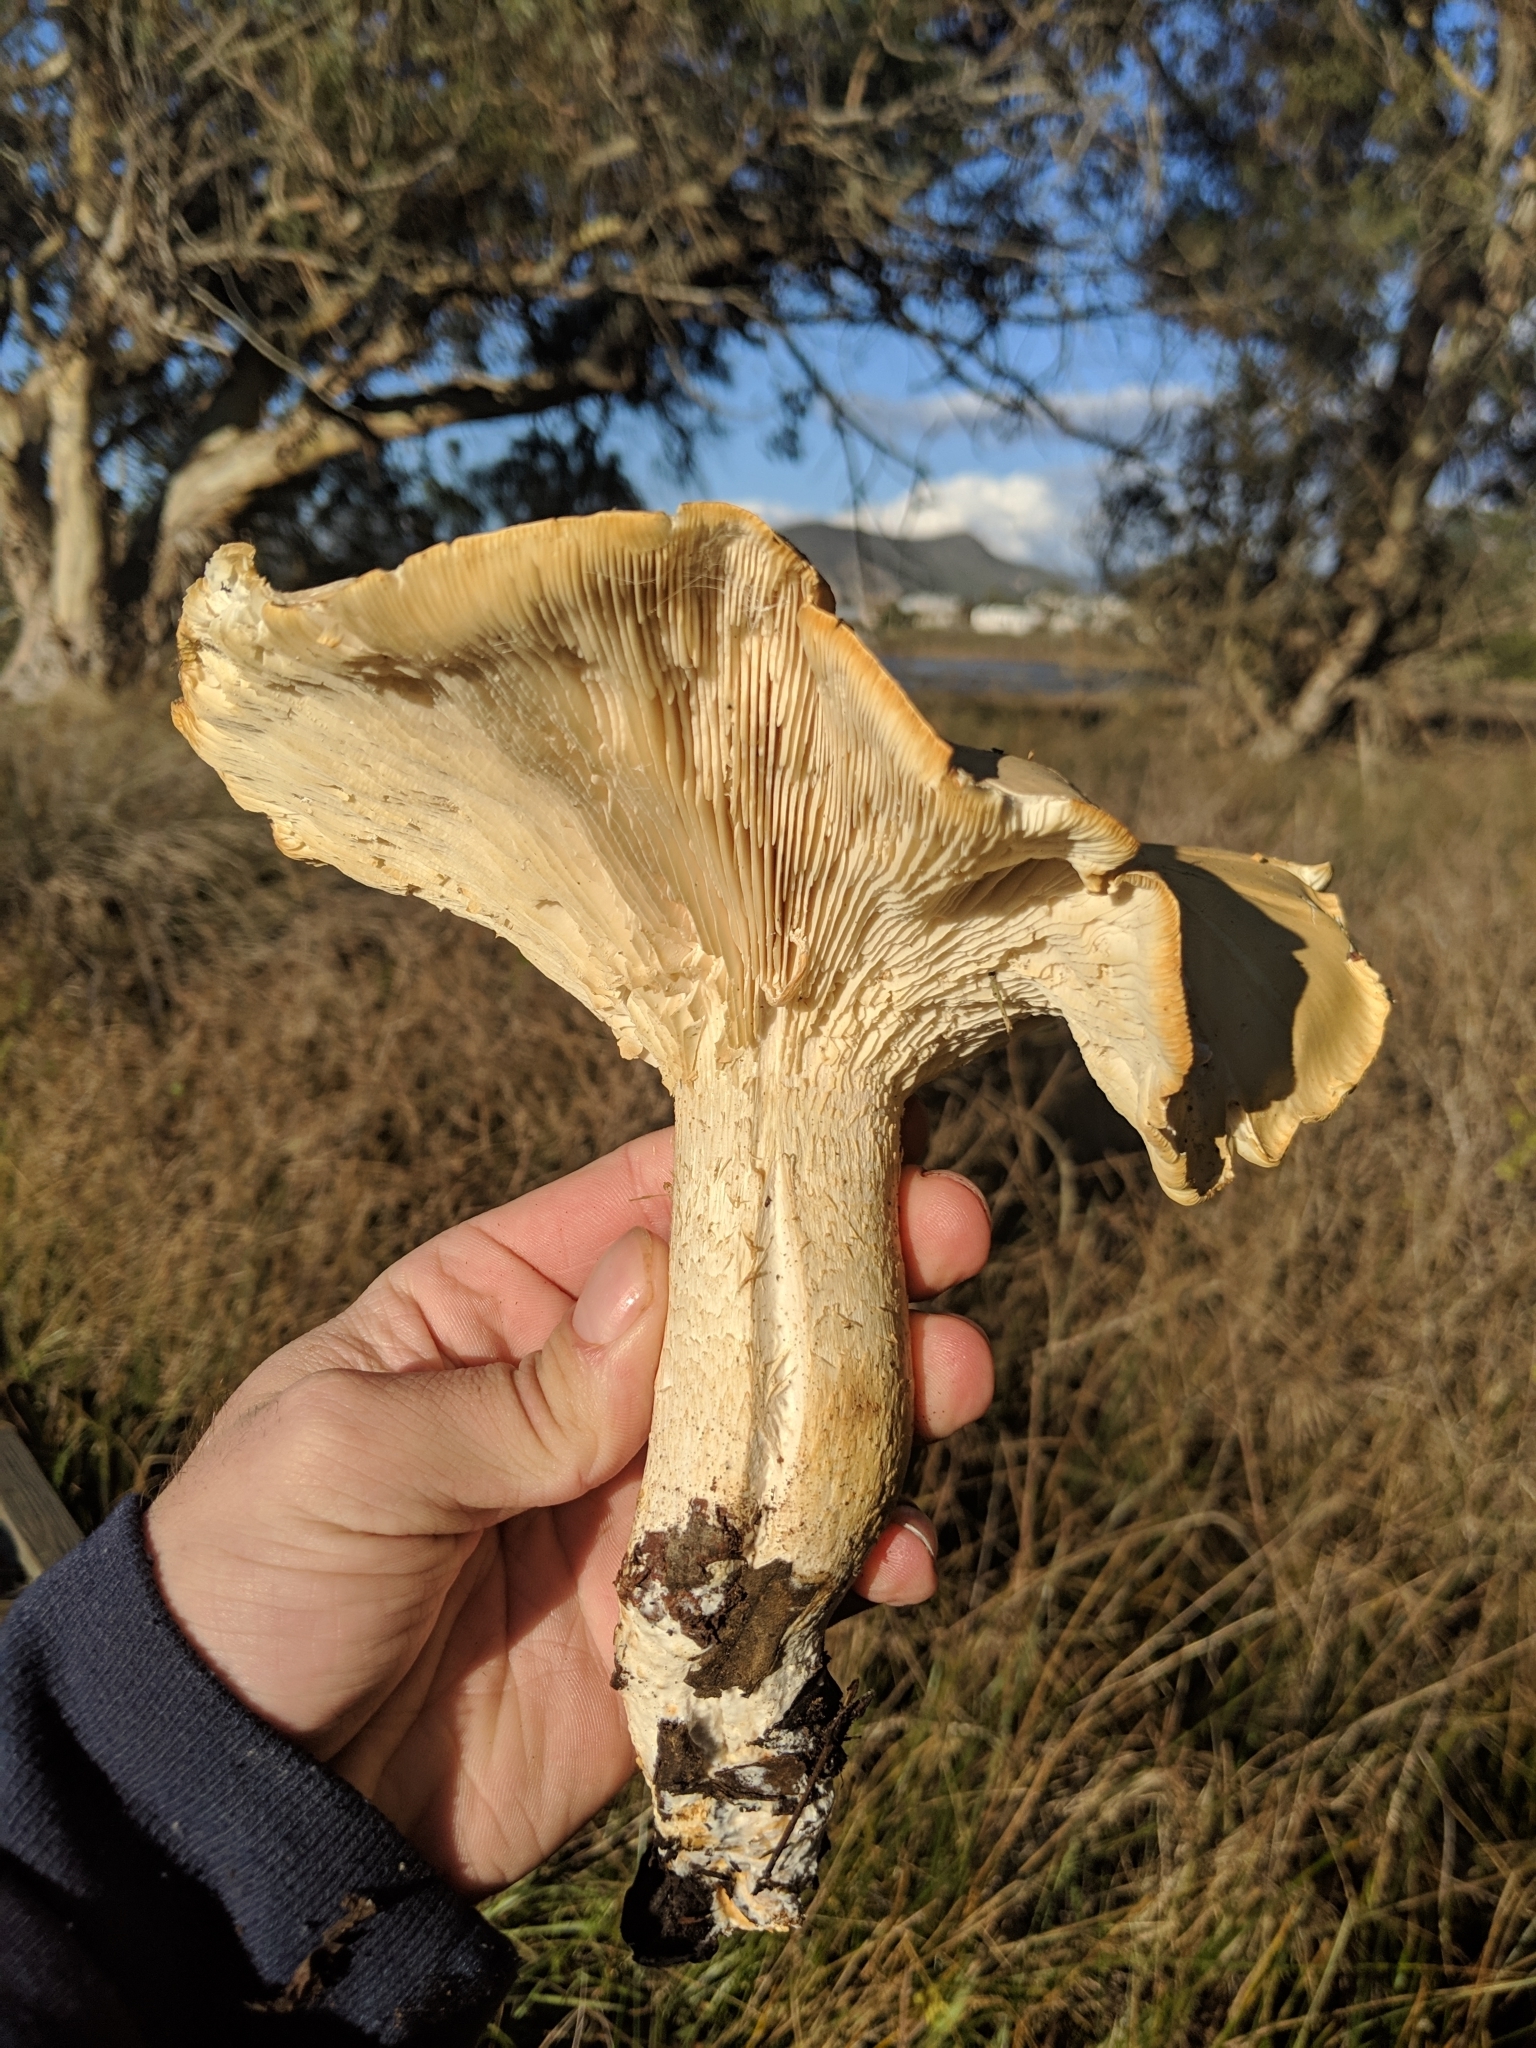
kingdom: Fungi
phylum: Basidiomycota
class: Agaricomycetes
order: Agaricales
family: Tricholomataceae
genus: Leucopaxillus
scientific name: Leucopaxillus albissimus
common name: Large white leucopax
